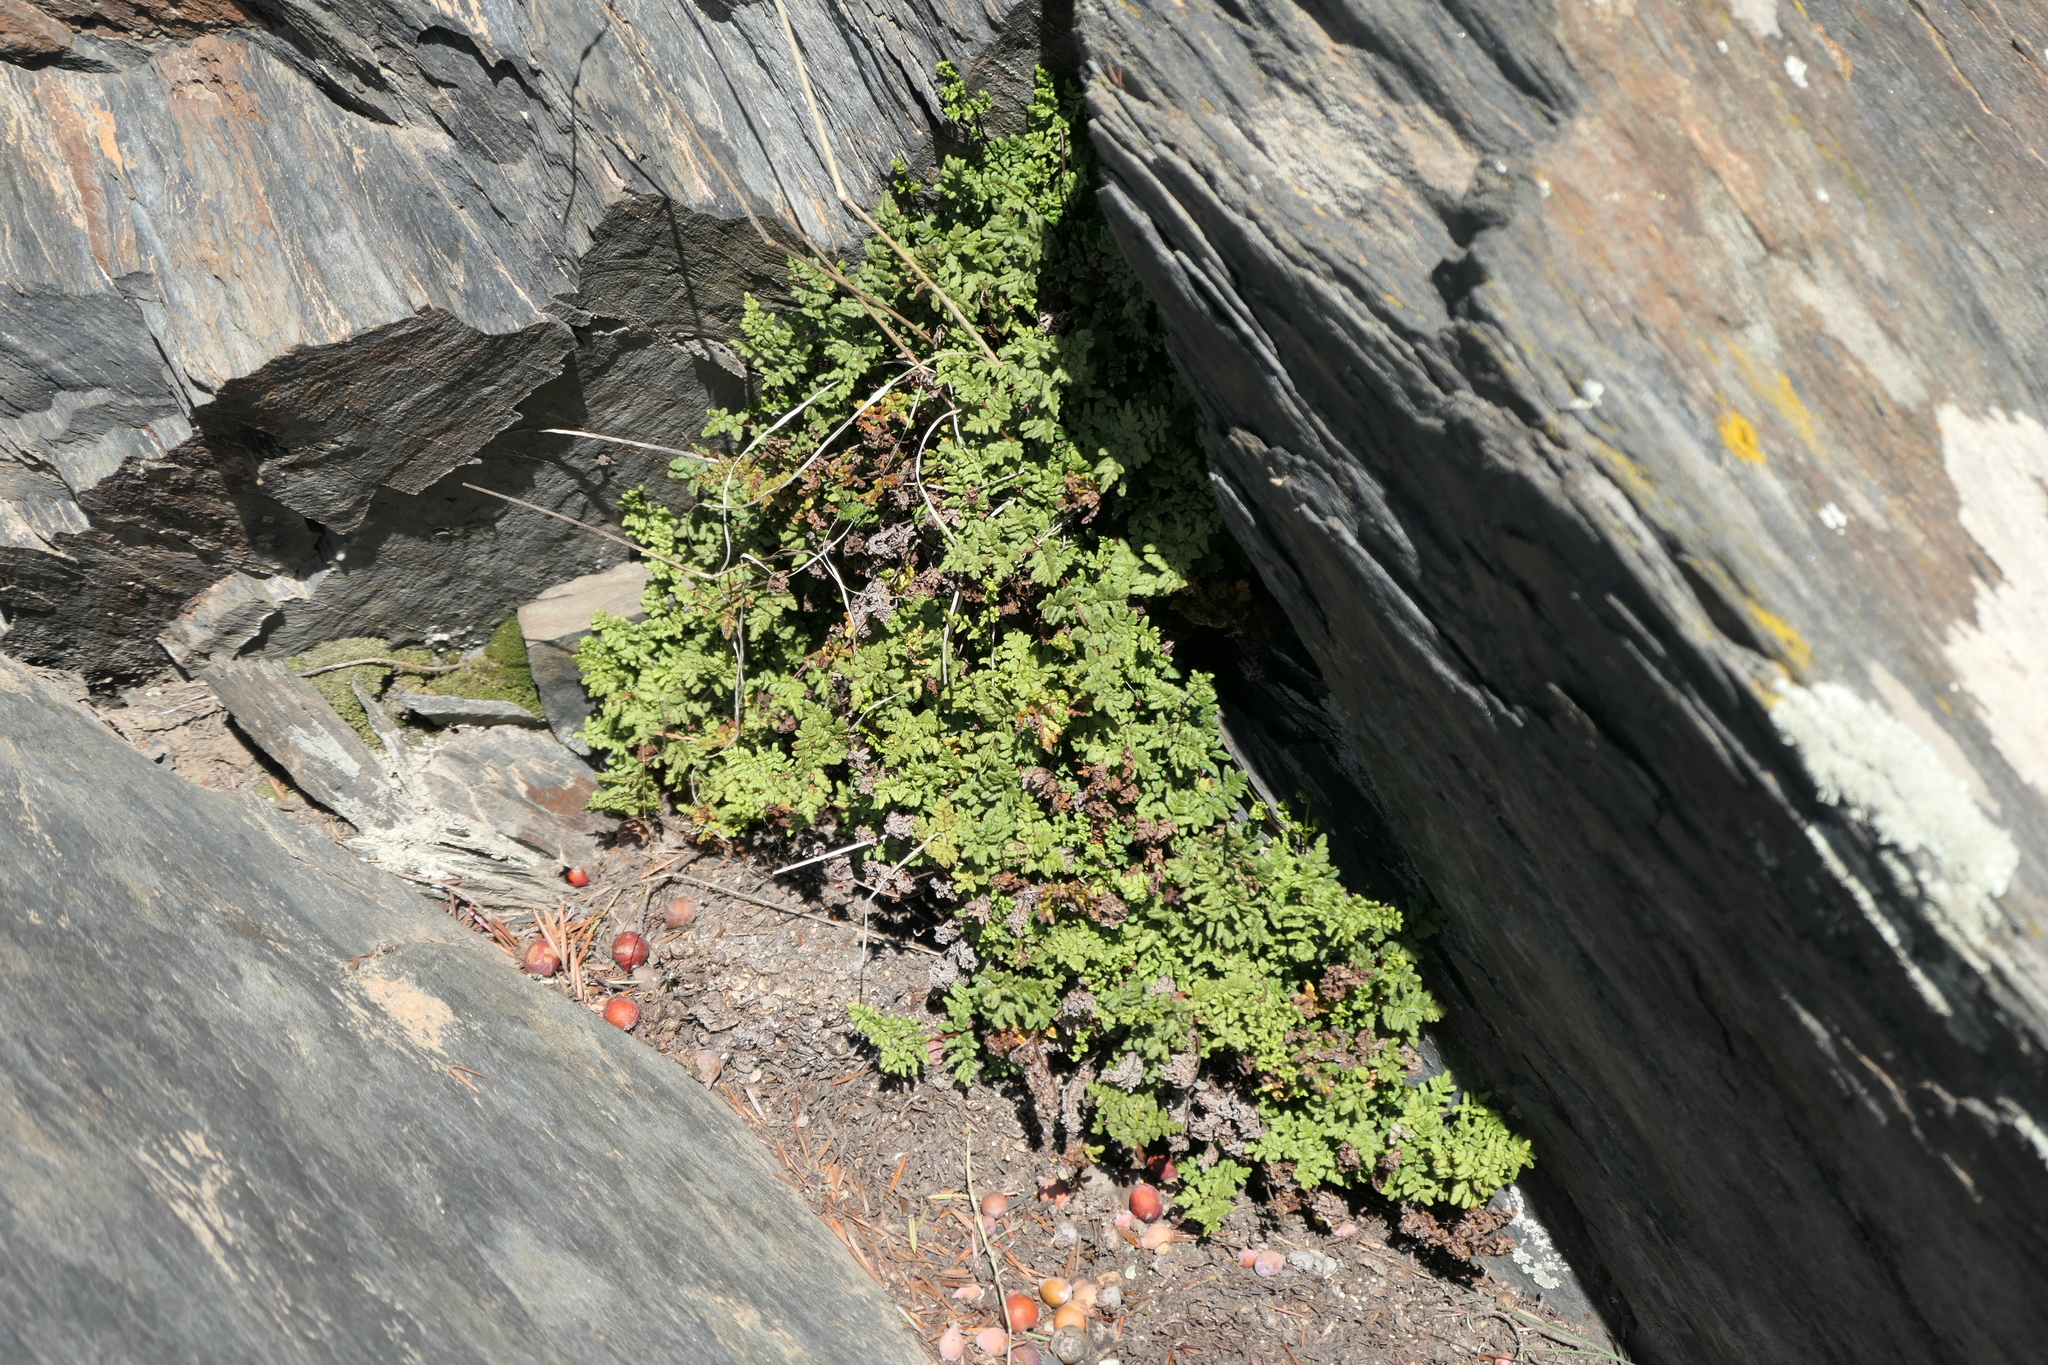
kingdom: Plantae
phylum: Tracheophyta
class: Polypodiopsida
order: Polypodiales
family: Pteridaceae
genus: Oeosporangium
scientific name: Oeosporangium hispanicum
